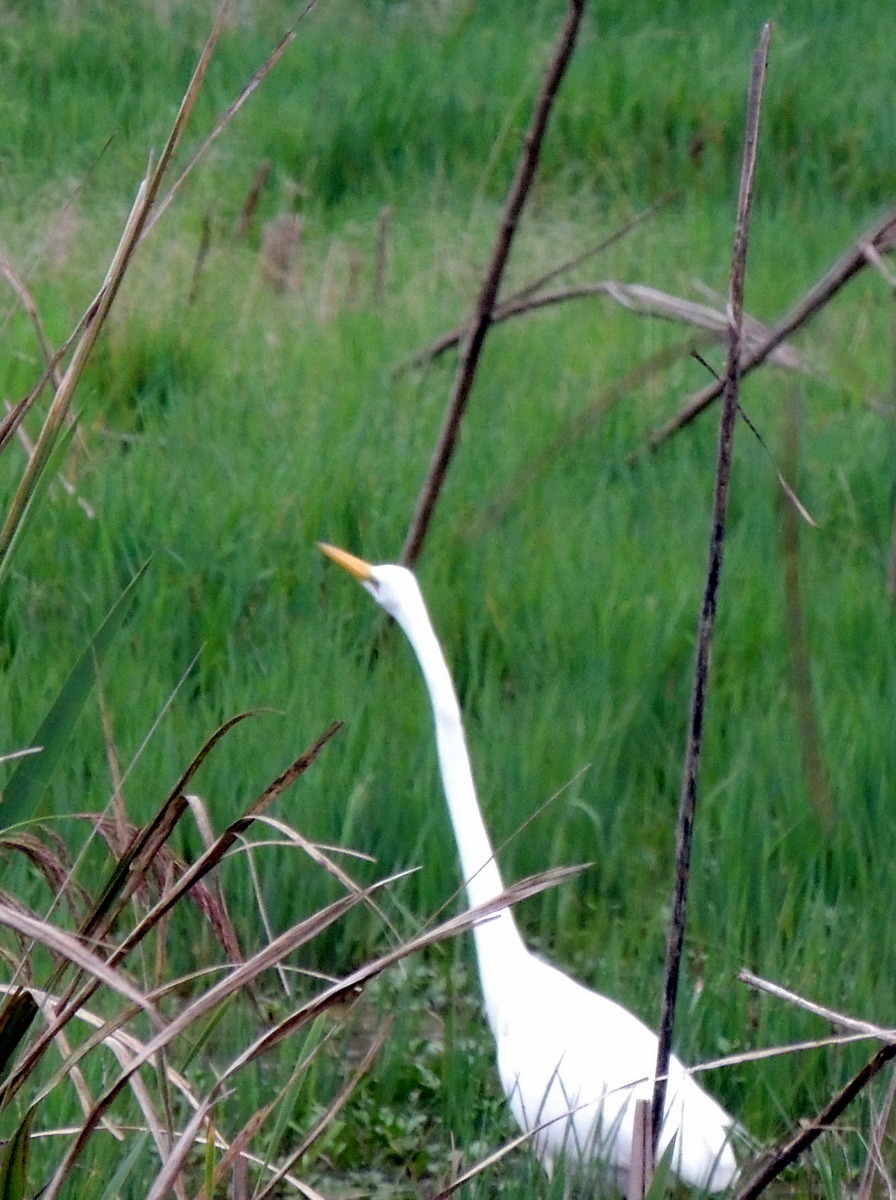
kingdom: Animalia
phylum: Chordata
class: Aves
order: Pelecaniformes
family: Ardeidae
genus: Ardea
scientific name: Ardea alba
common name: Great egret
